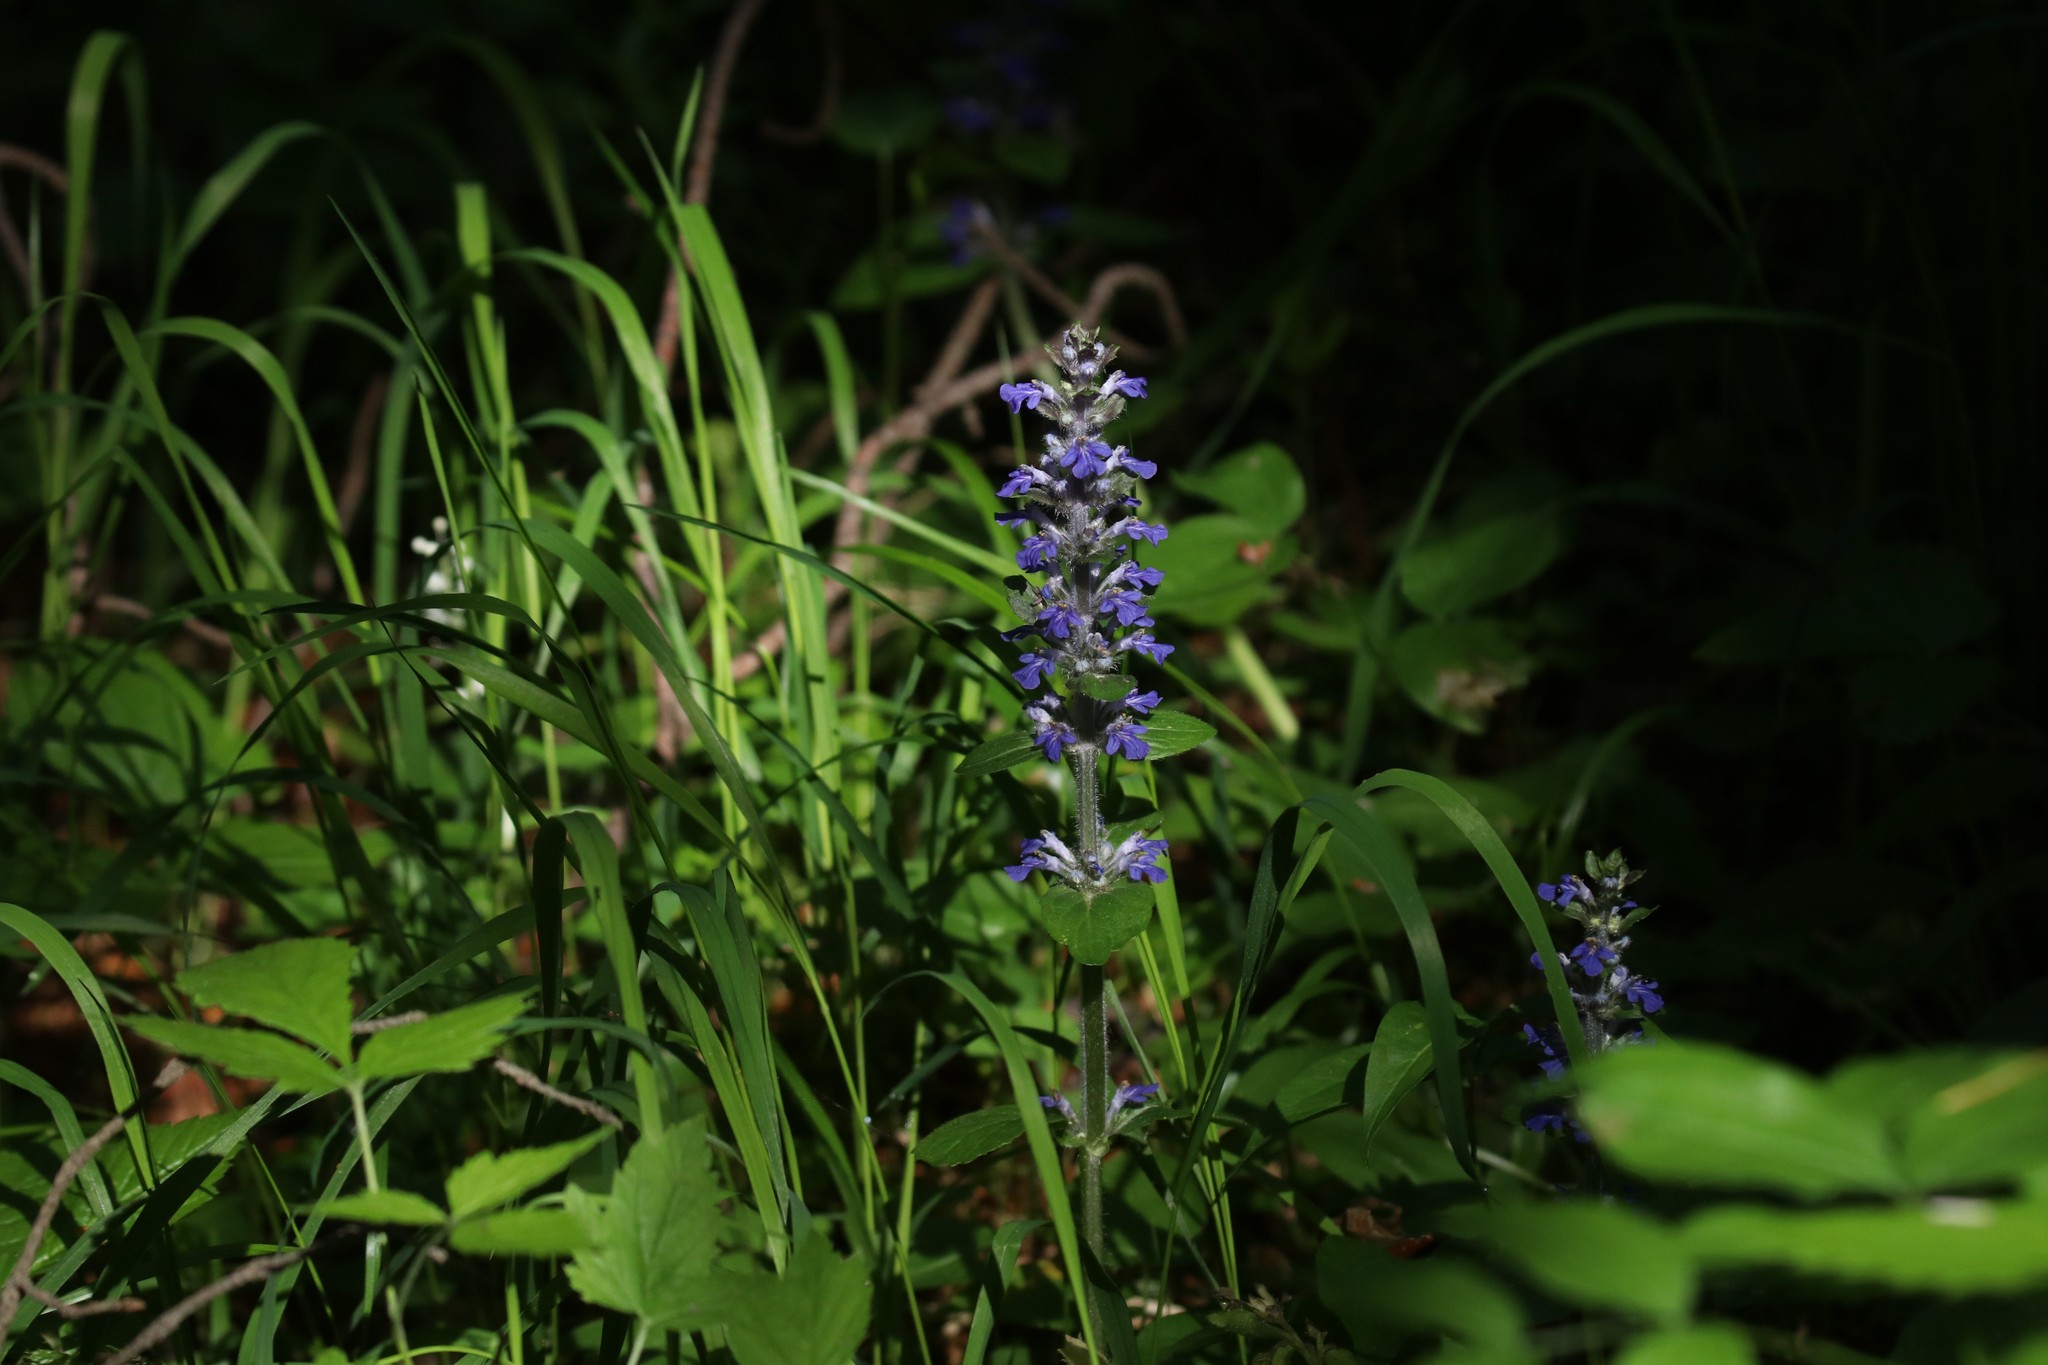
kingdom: Plantae
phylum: Tracheophyta
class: Magnoliopsida
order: Lamiales
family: Lamiaceae
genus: Ajuga
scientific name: Ajuga reptans
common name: Bugle
